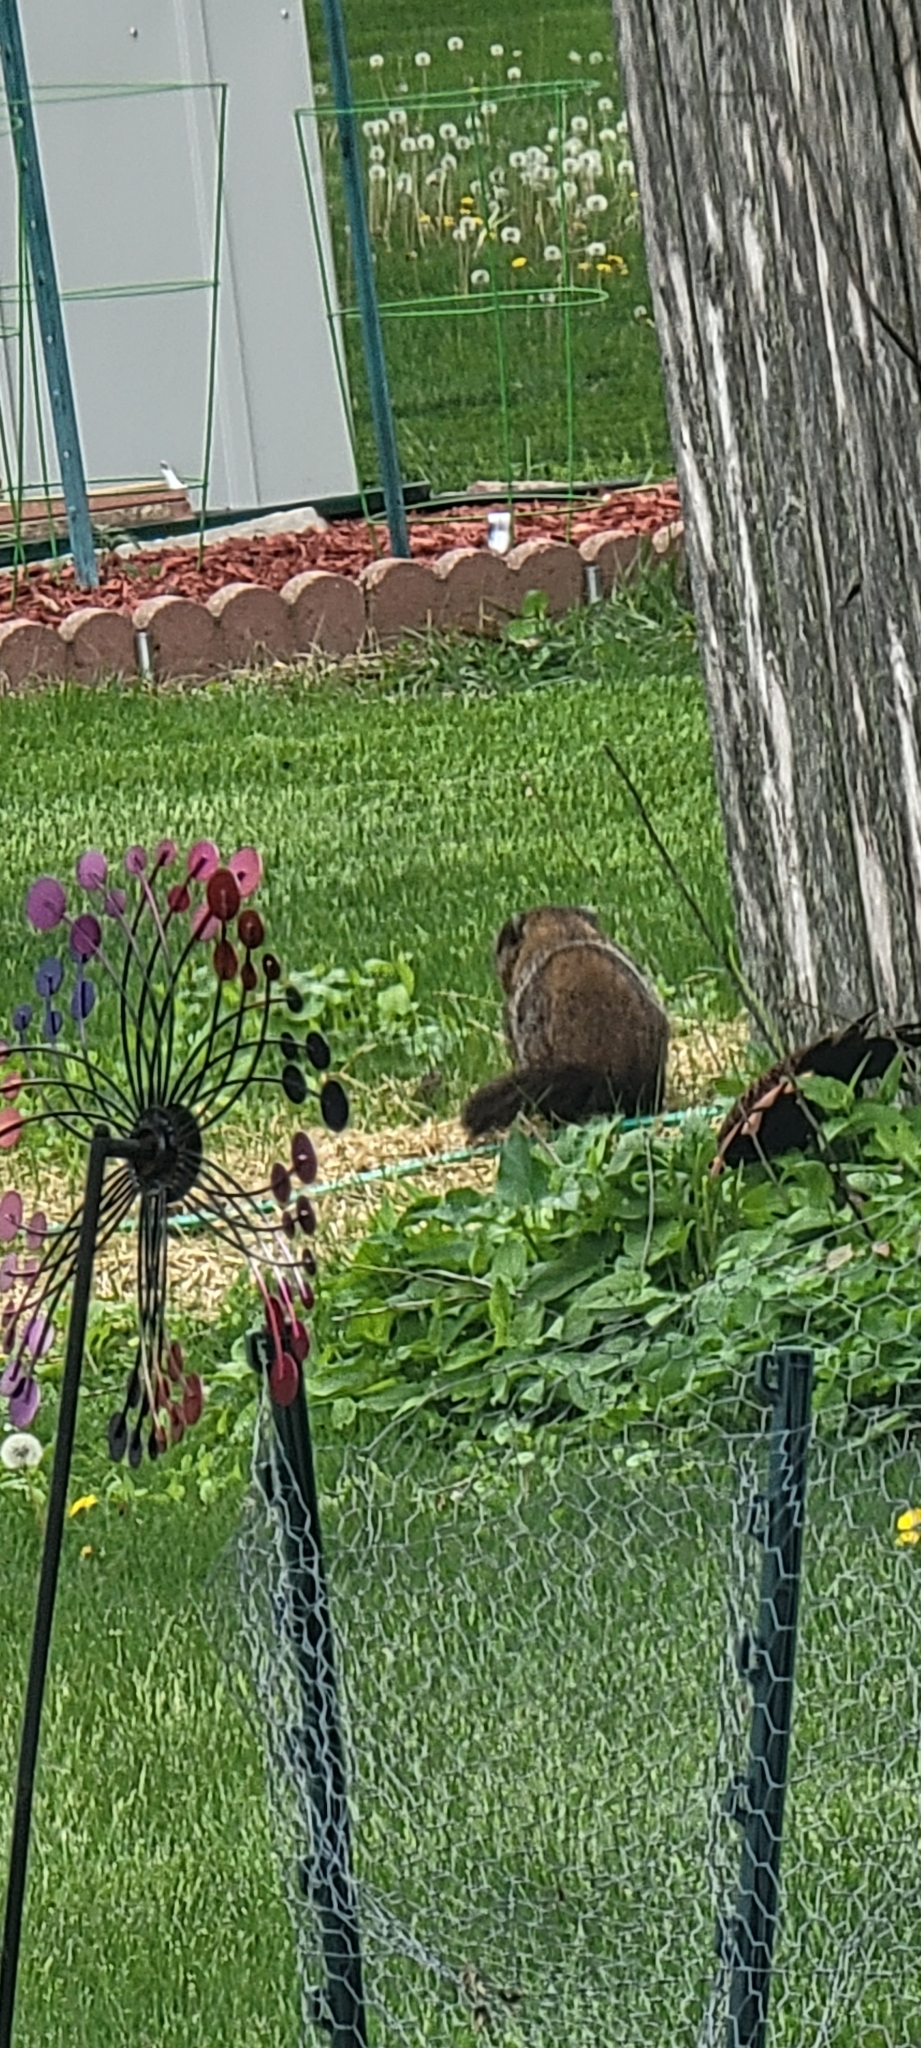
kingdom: Animalia
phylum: Chordata
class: Mammalia
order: Rodentia
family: Sciuridae
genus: Marmota
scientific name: Marmota monax
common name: Groundhog
